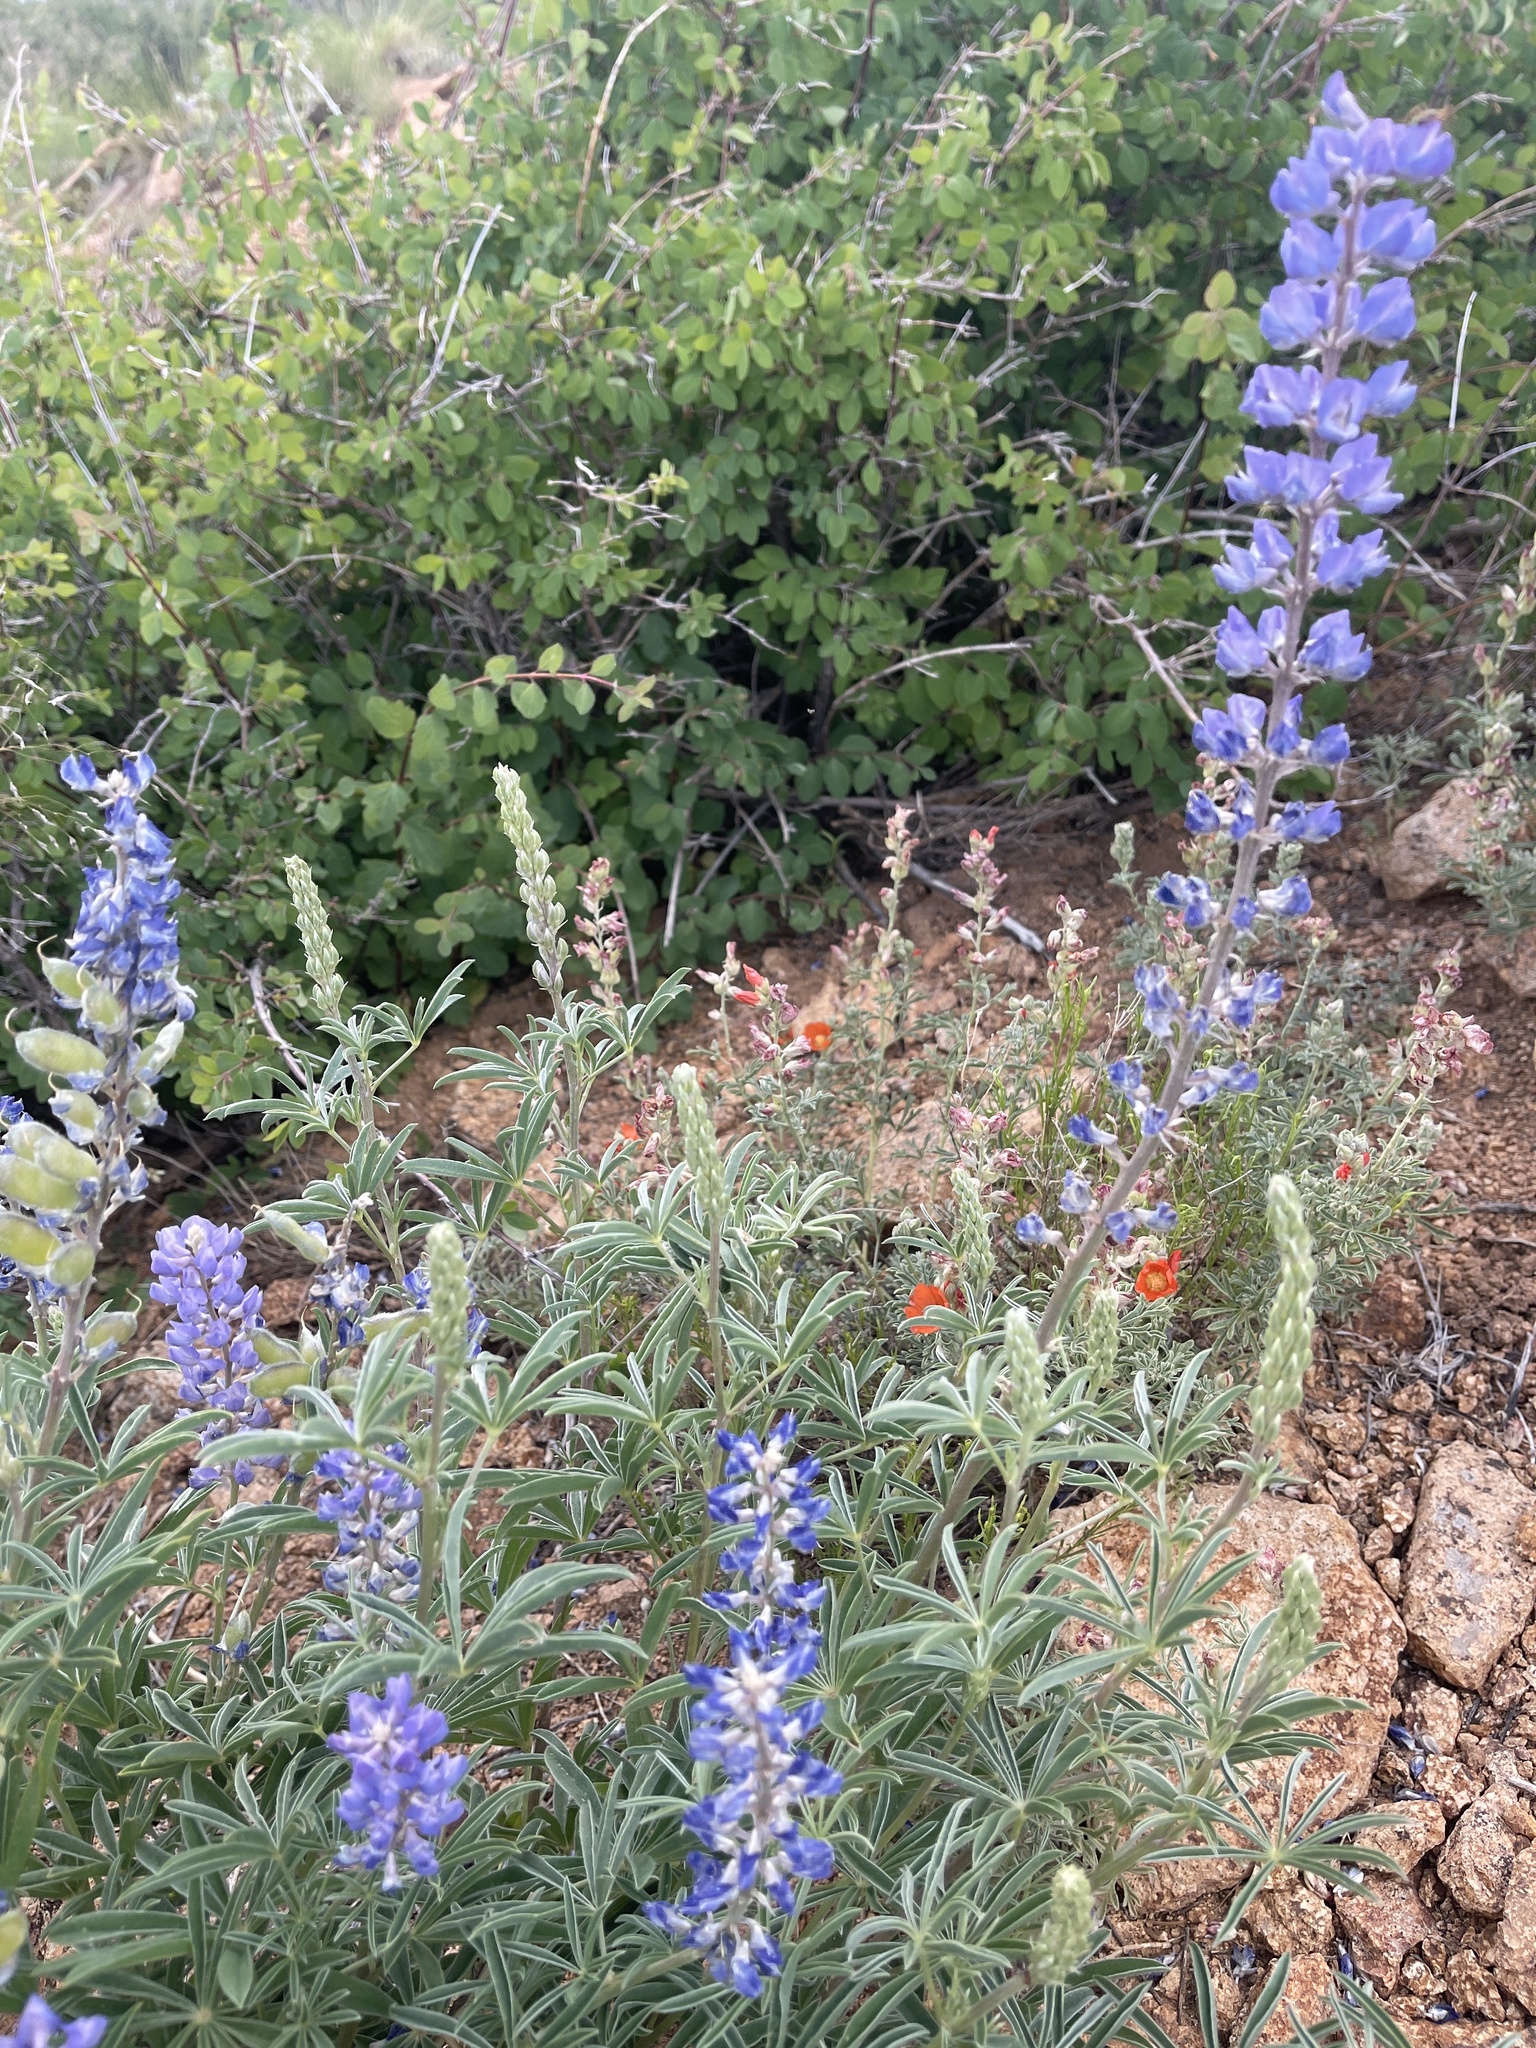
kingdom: Plantae
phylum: Tracheophyta
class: Magnoliopsida
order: Fabales
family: Fabaceae
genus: Lupinus
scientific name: Lupinus argenteus
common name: Silvery lupine
